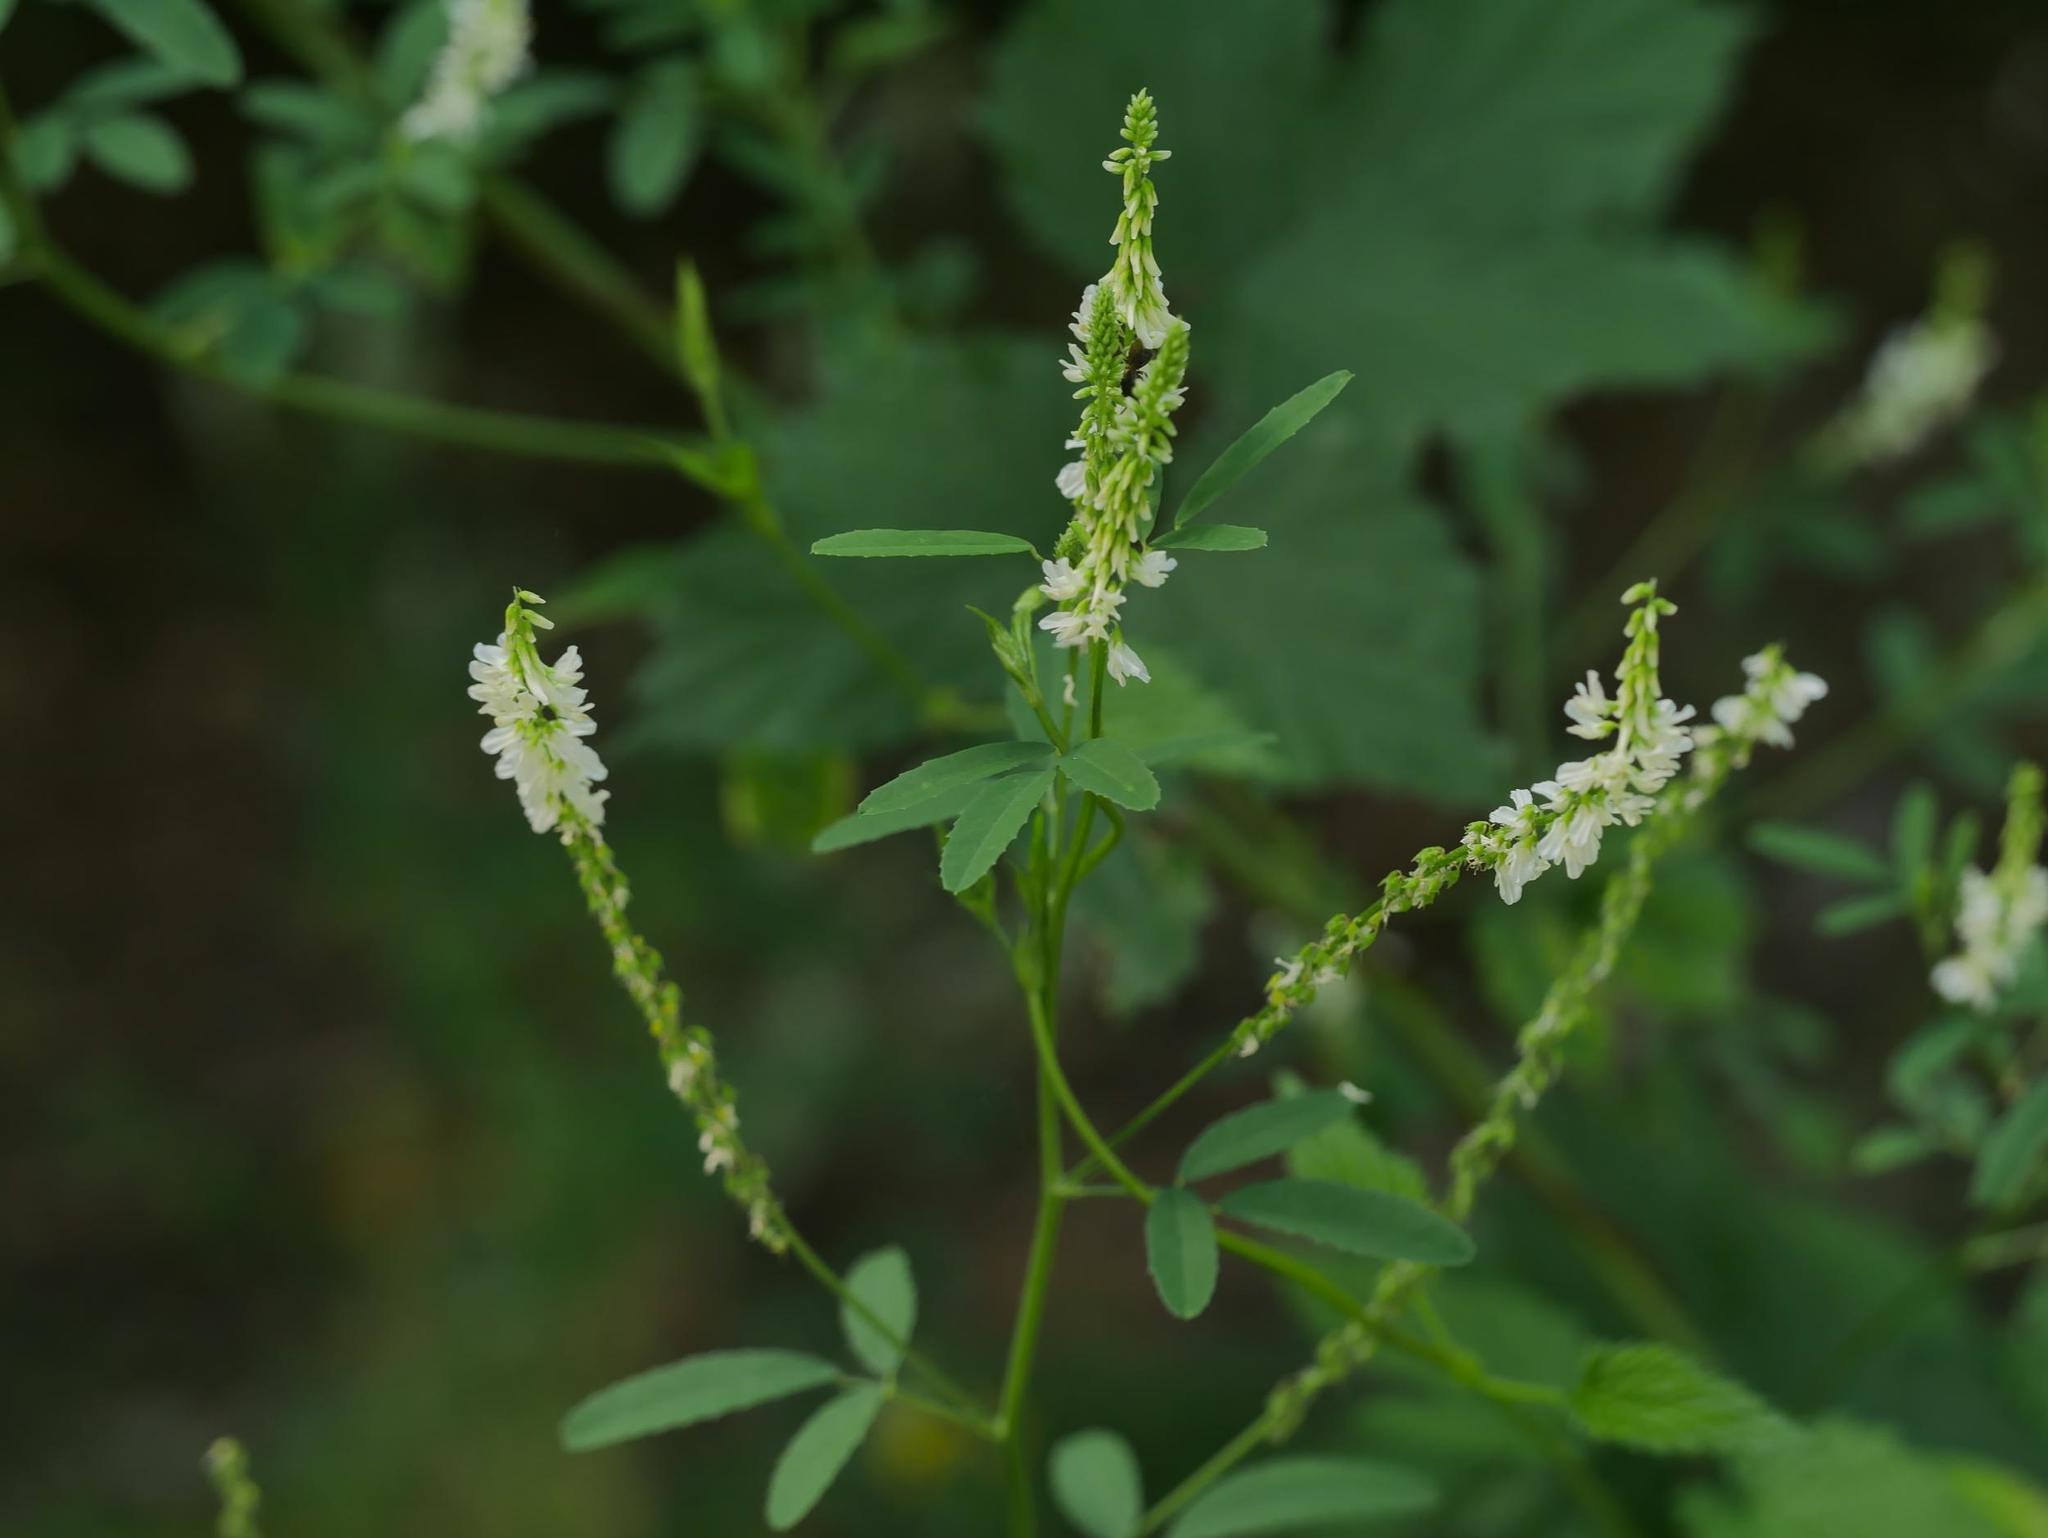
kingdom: Plantae
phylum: Tracheophyta
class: Magnoliopsida
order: Fabales
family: Fabaceae
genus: Melilotus
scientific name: Melilotus albus
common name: White melilot
